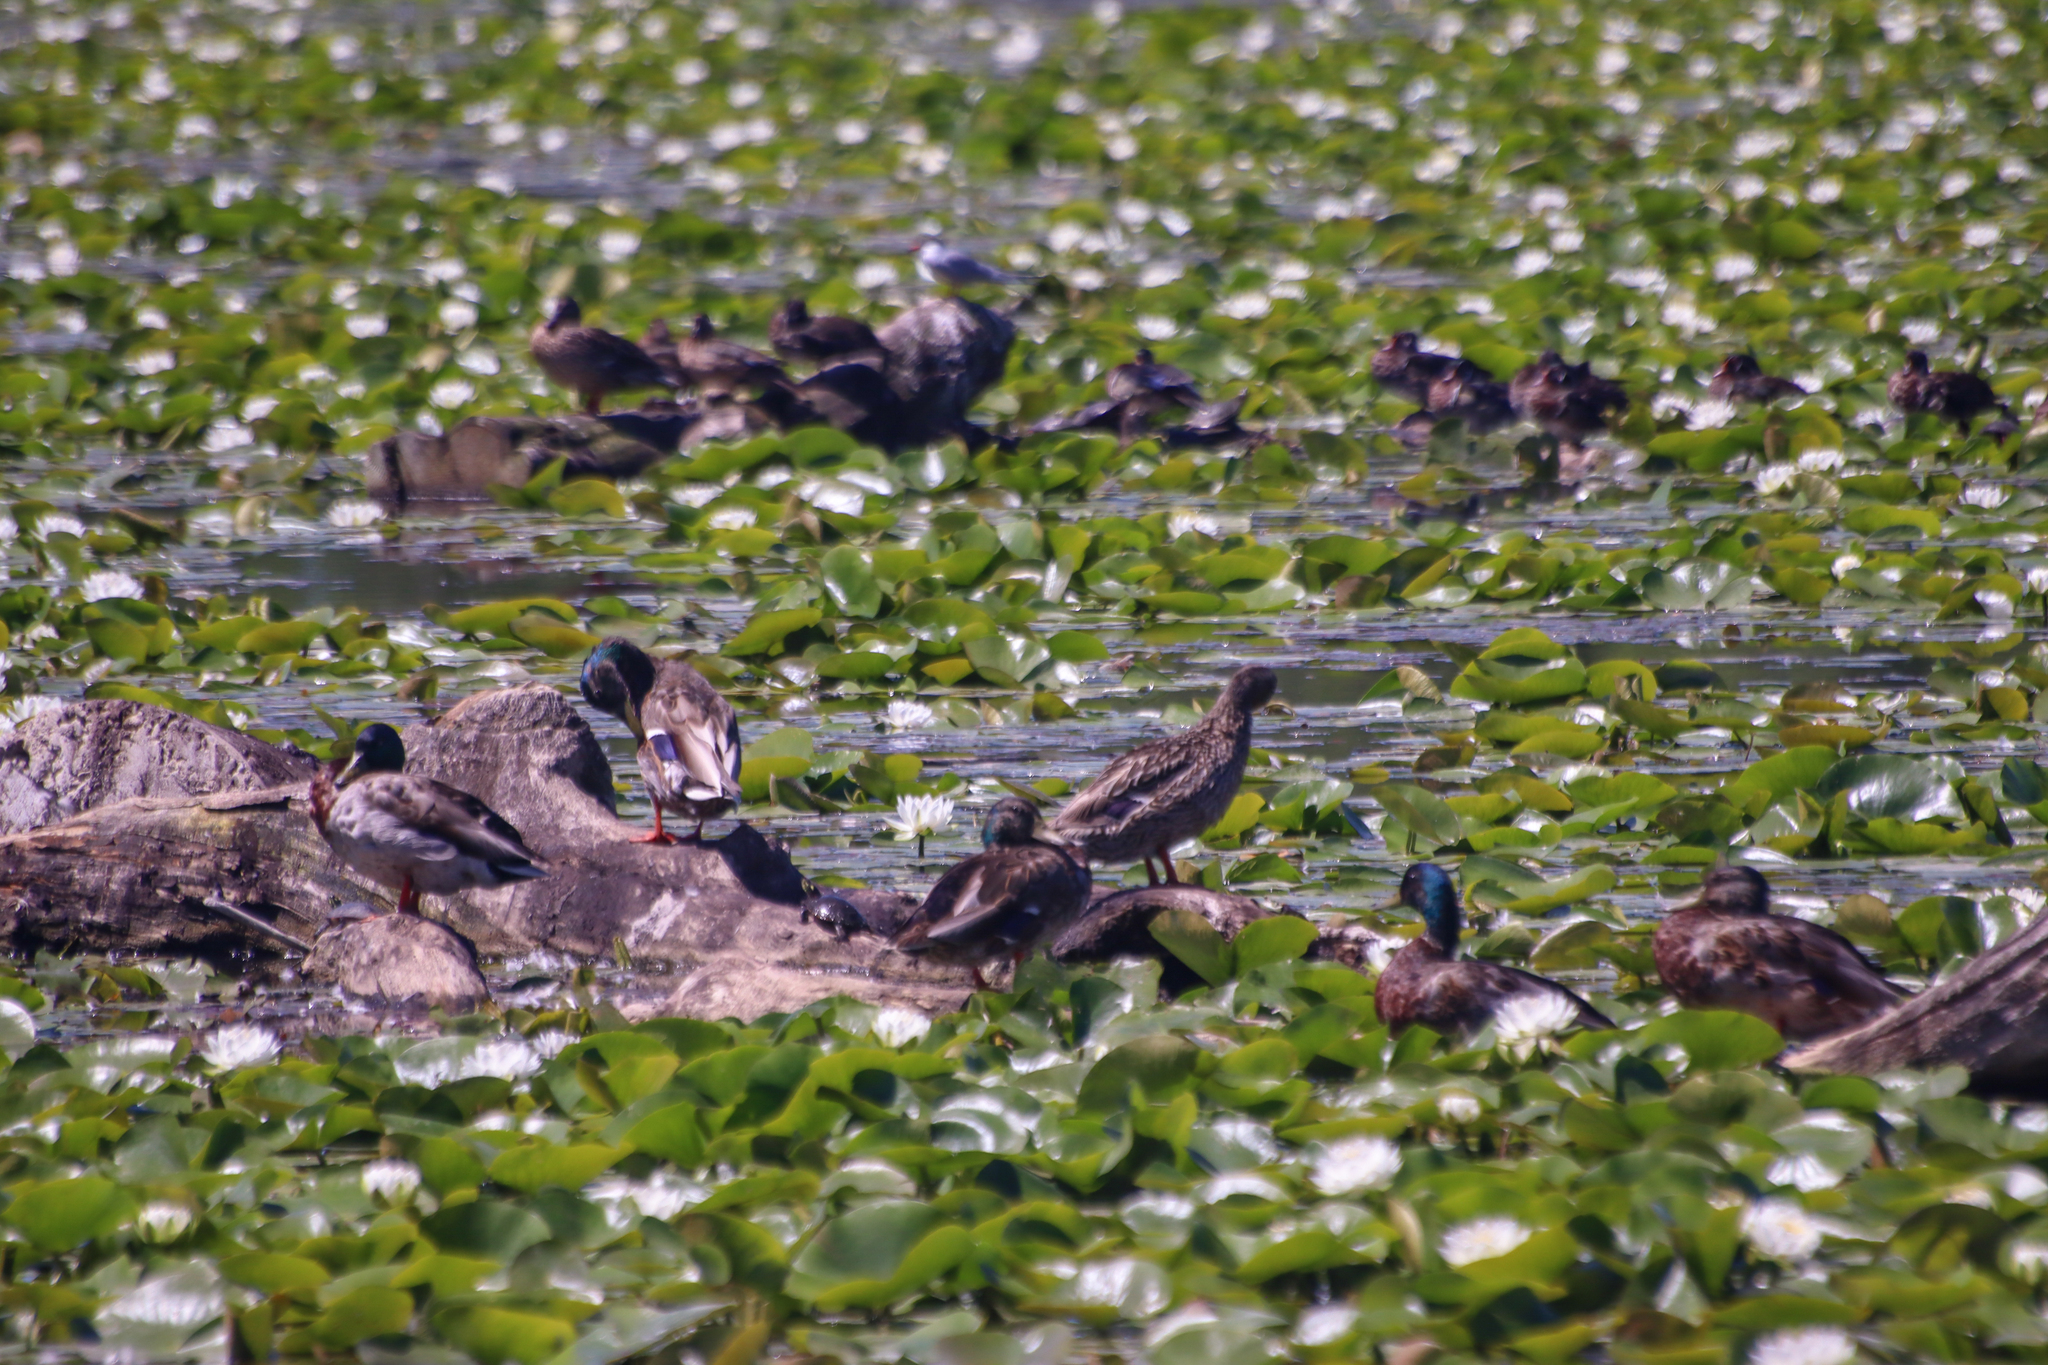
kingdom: Animalia
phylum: Chordata
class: Aves
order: Anseriformes
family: Anatidae
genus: Anas
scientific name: Anas platyrhynchos
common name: Mallard
